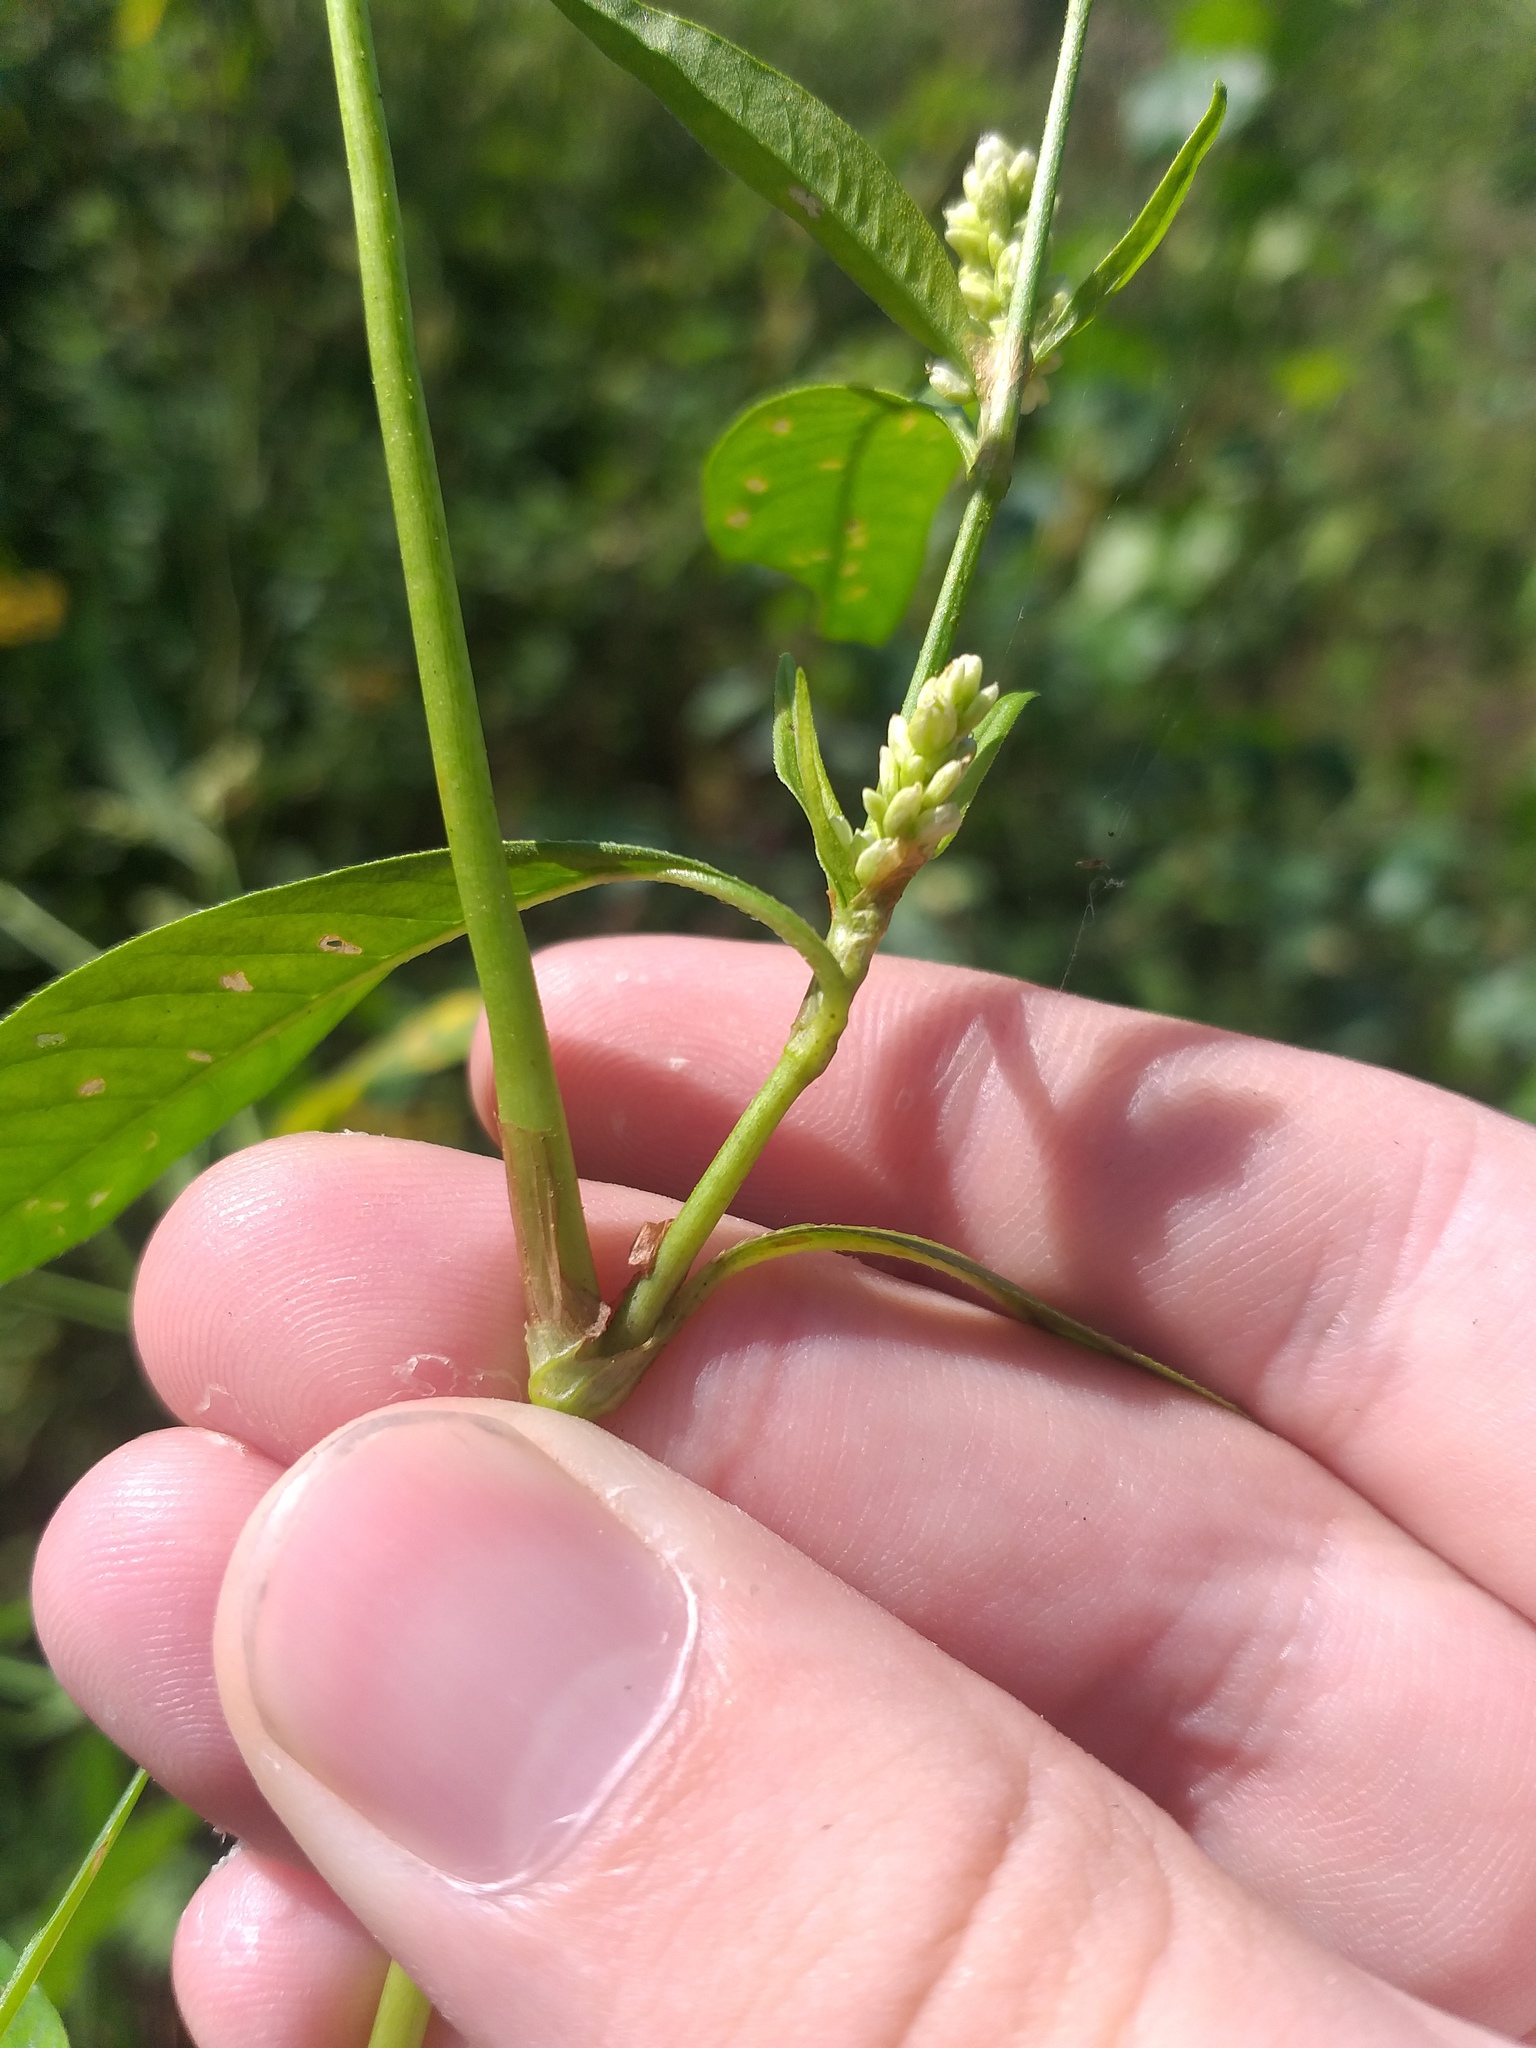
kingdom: Plantae
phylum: Tracheophyta
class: Magnoliopsida
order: Caryophyllales
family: Polygonaceae
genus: Persicaria
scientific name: Persicaria lapathifolia
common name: Curlytop knotweed
